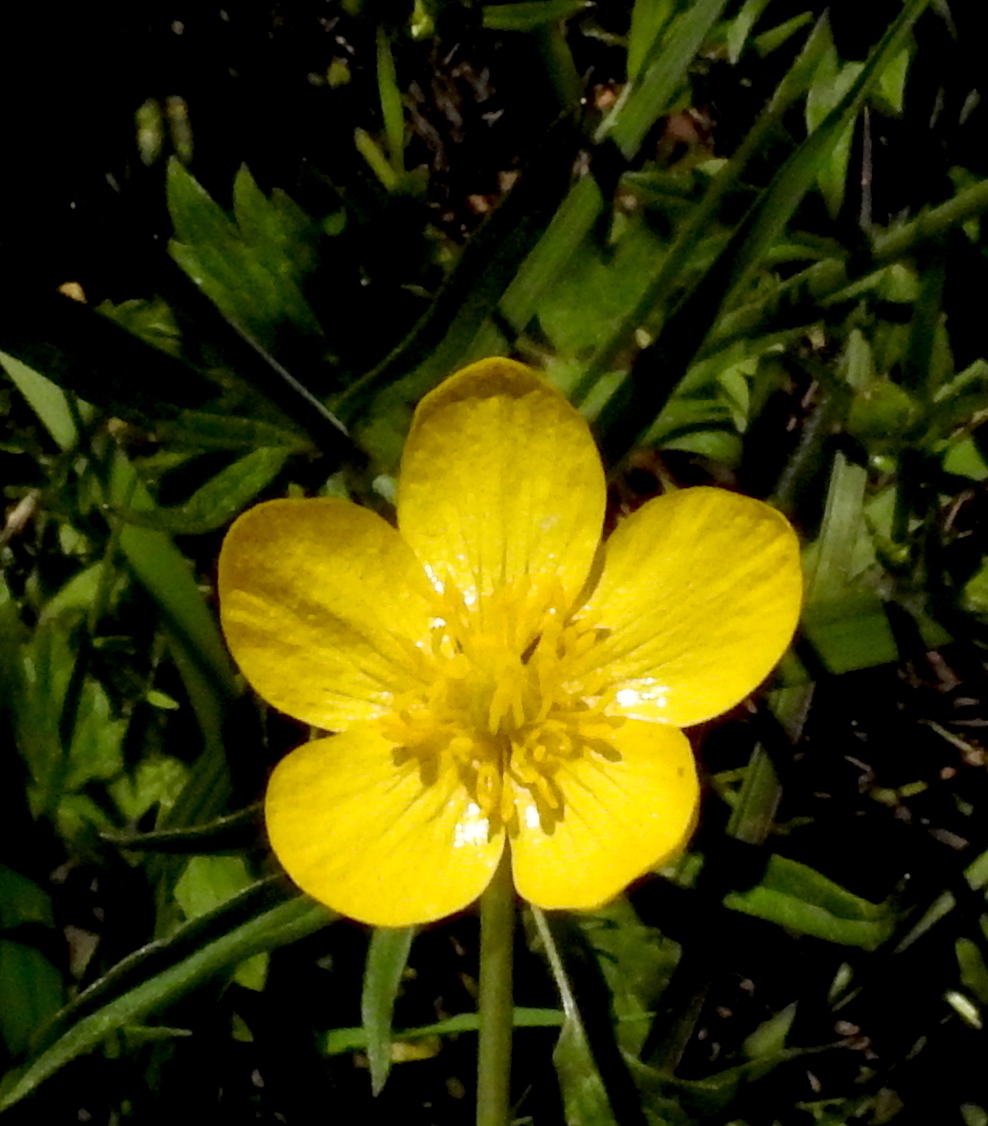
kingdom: Plantae
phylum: Tracheophyta
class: Magnoliopsida
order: Ranunculales
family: Ranunculaceae
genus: Ranunculus
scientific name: Ranunculus occidentalis
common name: Western buttercup
